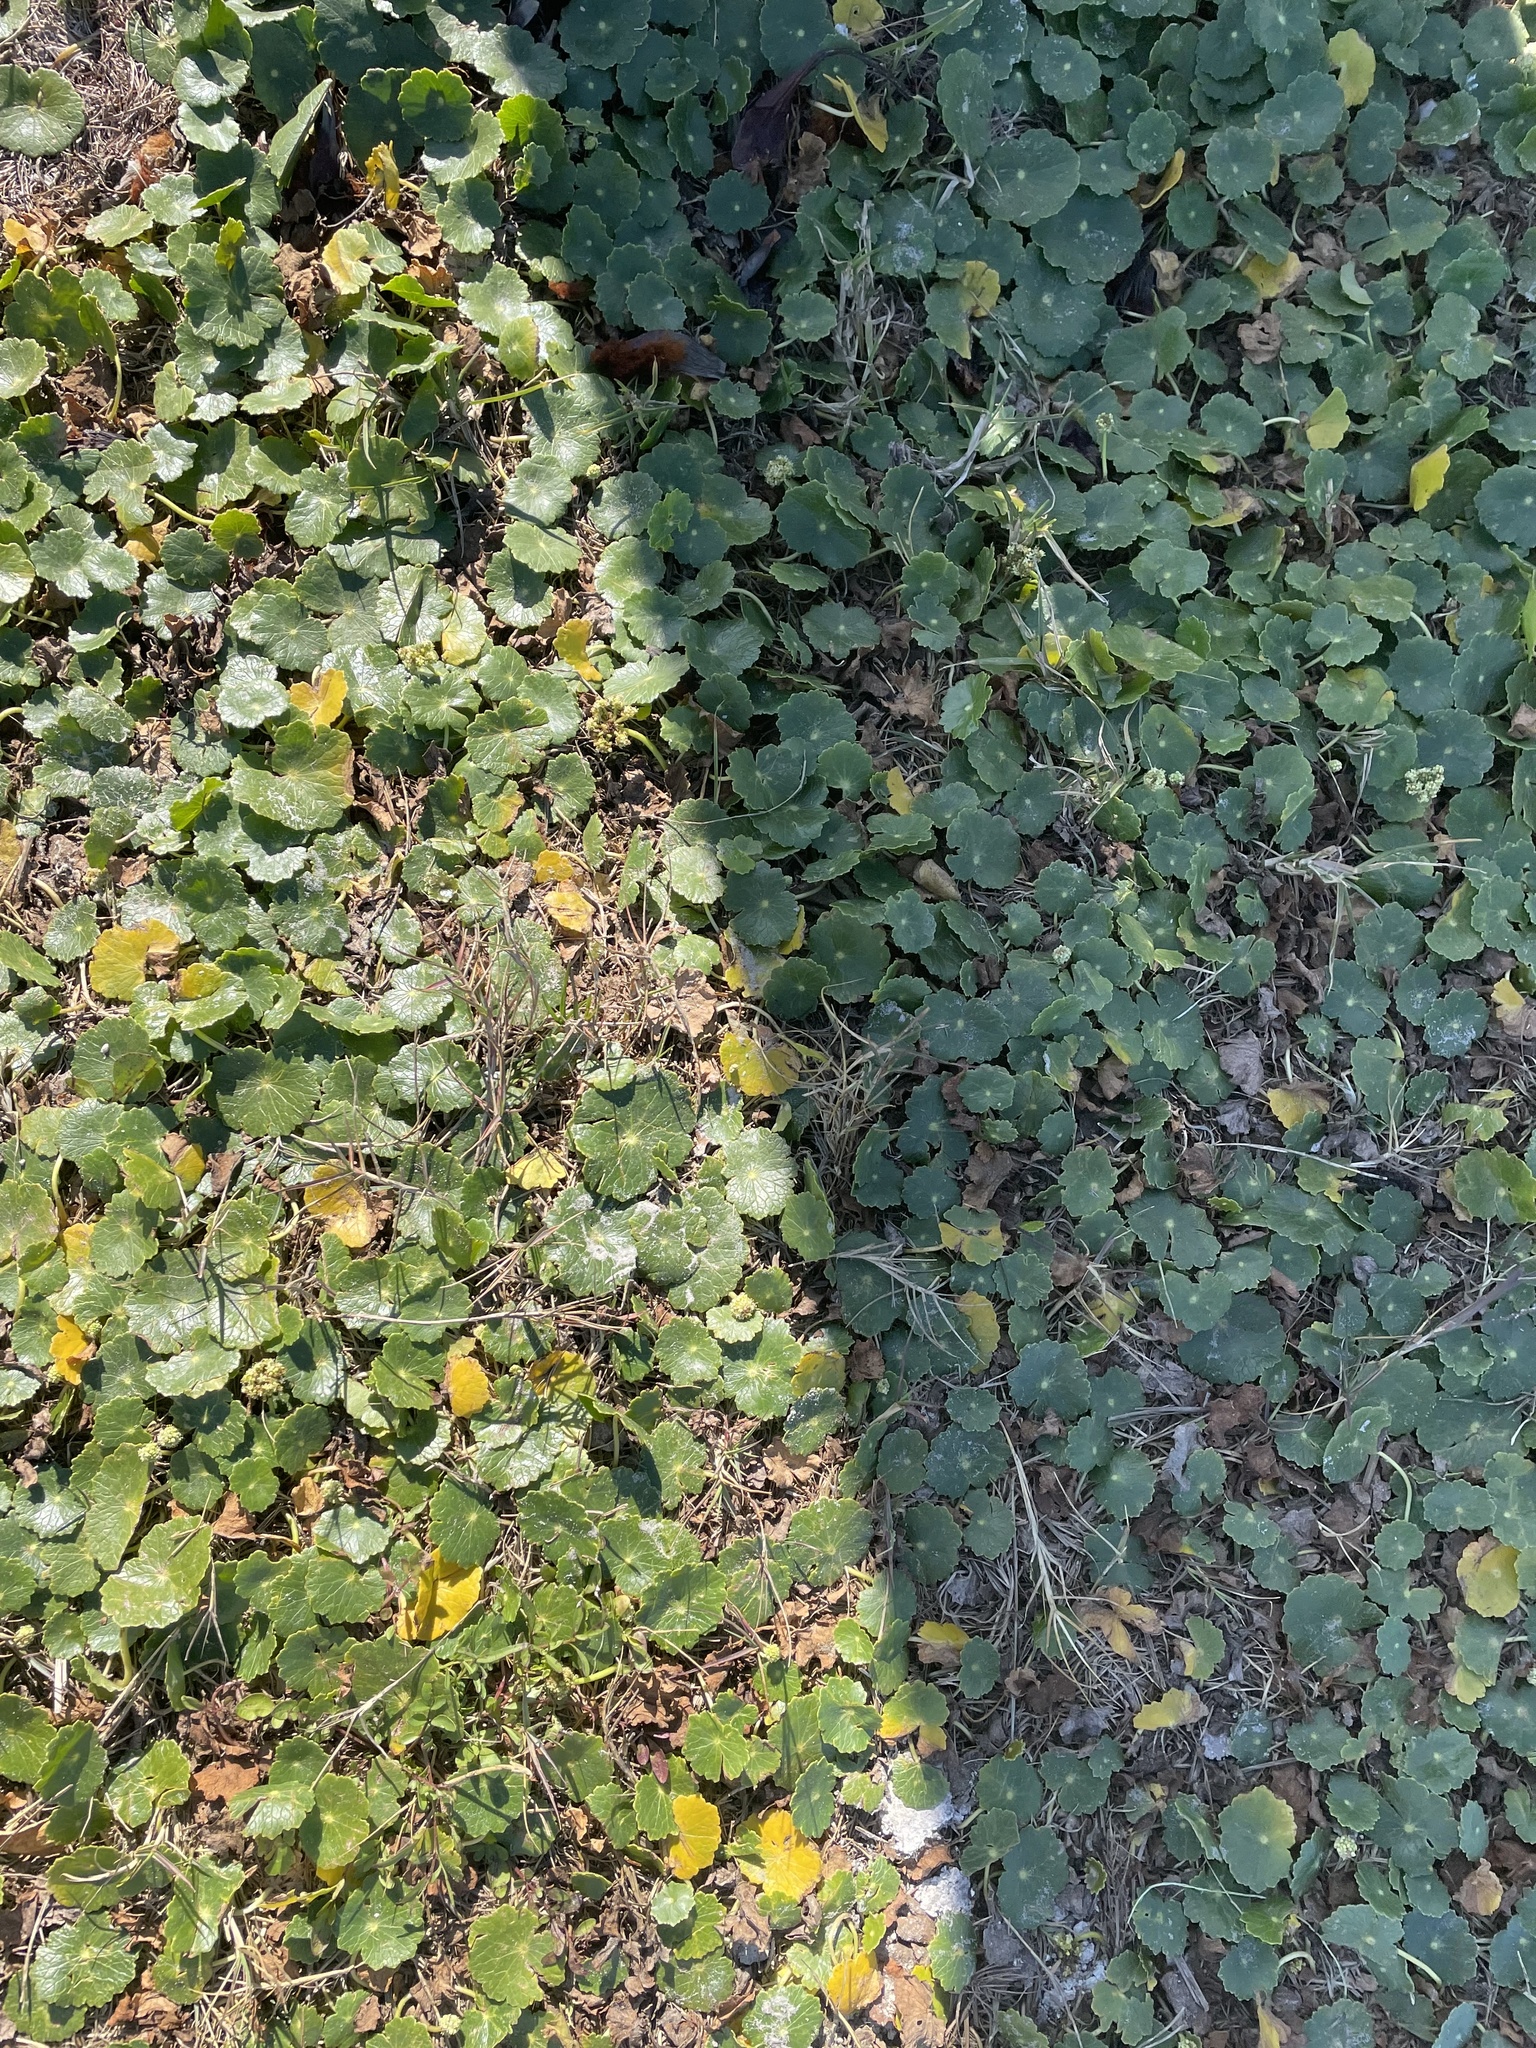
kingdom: Plantae
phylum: Tracheophyta
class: Magnoliopsida
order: Apiales
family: Araliaceae
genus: Hydrocotyle
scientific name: Hydrocotyle bonariensis
